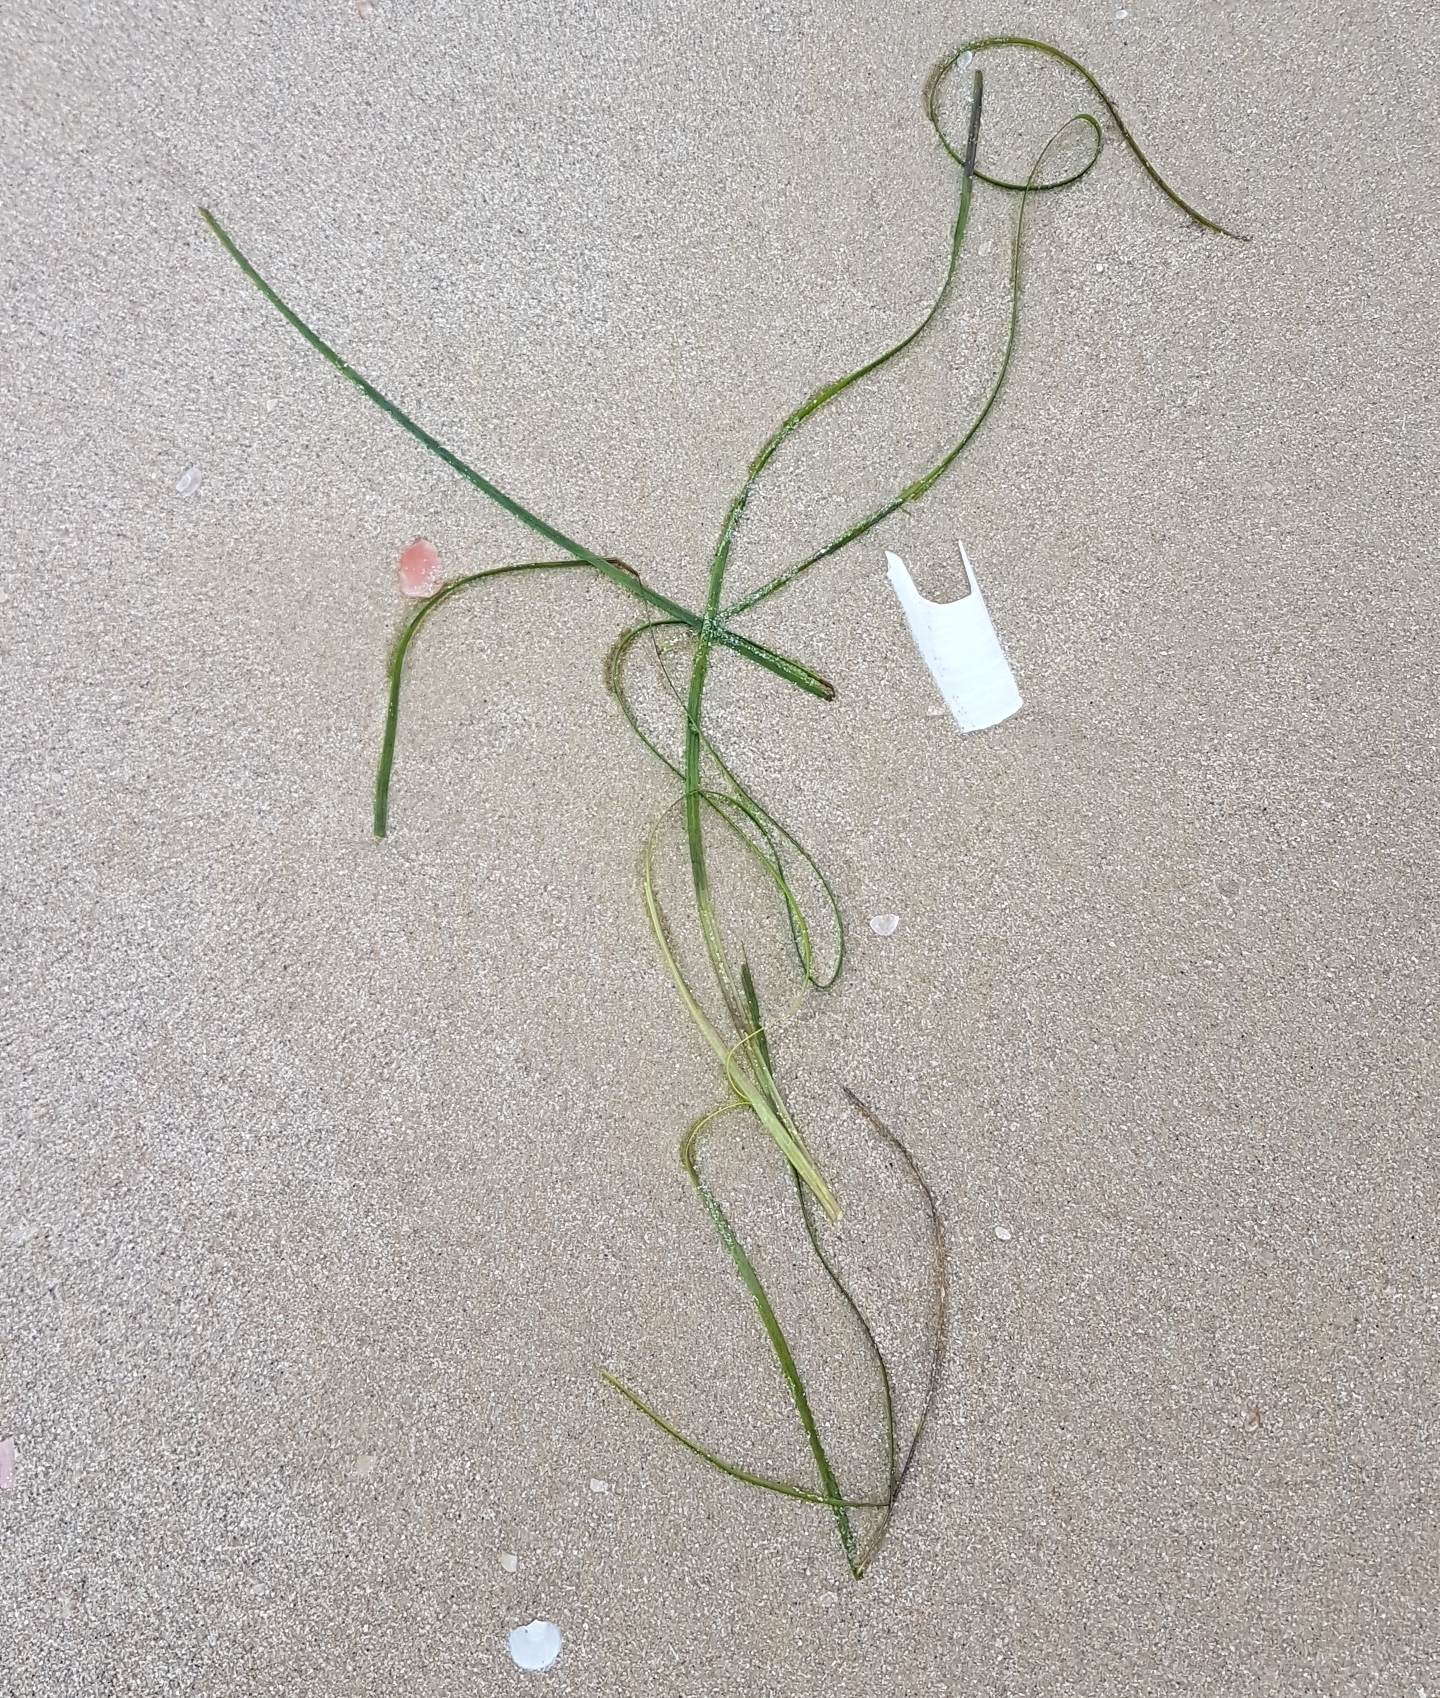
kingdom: Plantae
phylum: Tracheophyta
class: Liliopsida
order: Alismatales
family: Zosteraceae
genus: Zostera
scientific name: Zostera marina
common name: Eelgrass
